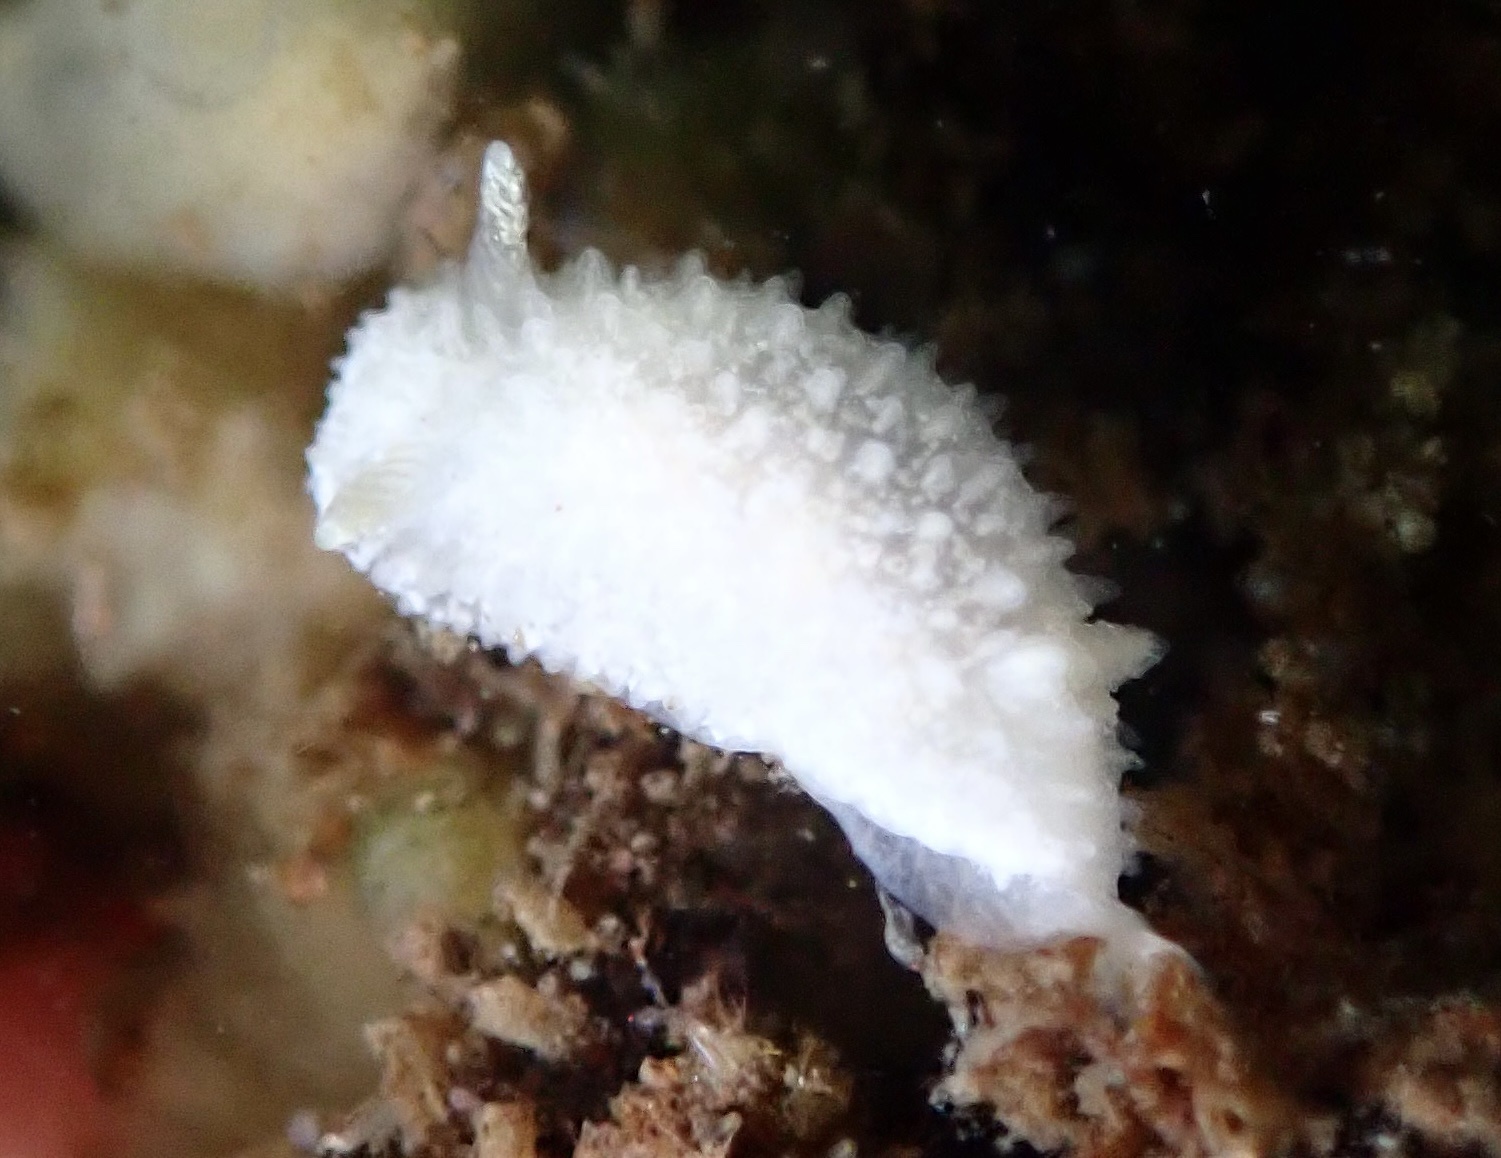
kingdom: Animalia
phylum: Mollusca
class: Gastropoda
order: Nudibranchia
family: Calycidorididae
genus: Diaphorodoris
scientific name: Diaphorodoris lirulatocauda
